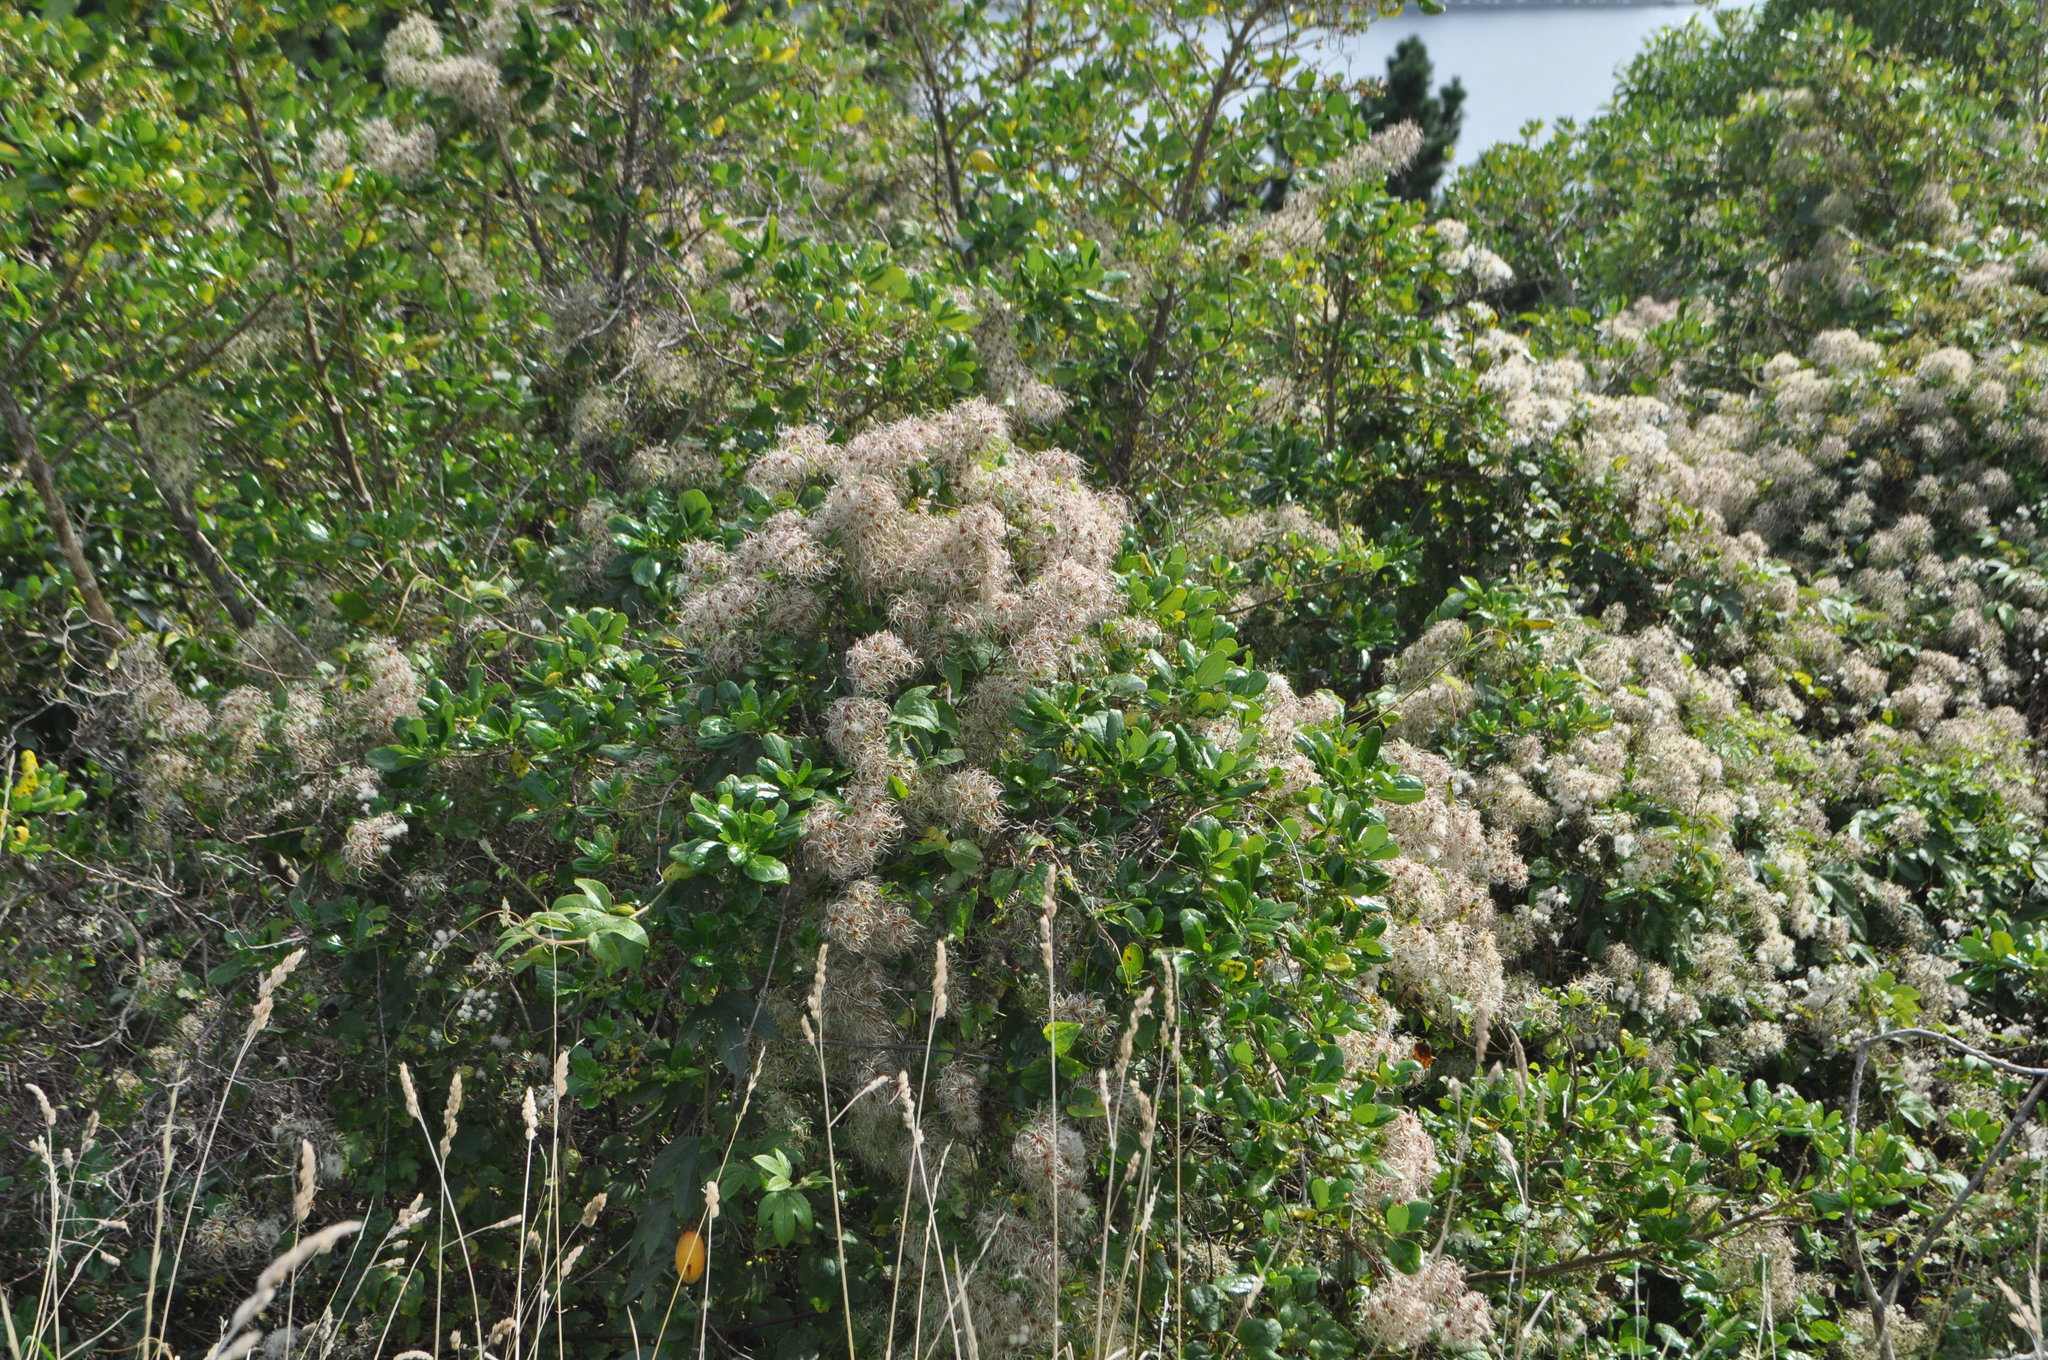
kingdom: Plantae
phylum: Tracheophyta
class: Magnoliopsida
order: Ranunculales
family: Ranunculaceae
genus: Clematis
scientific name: Clematis vitalba
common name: Evergreen clematis
